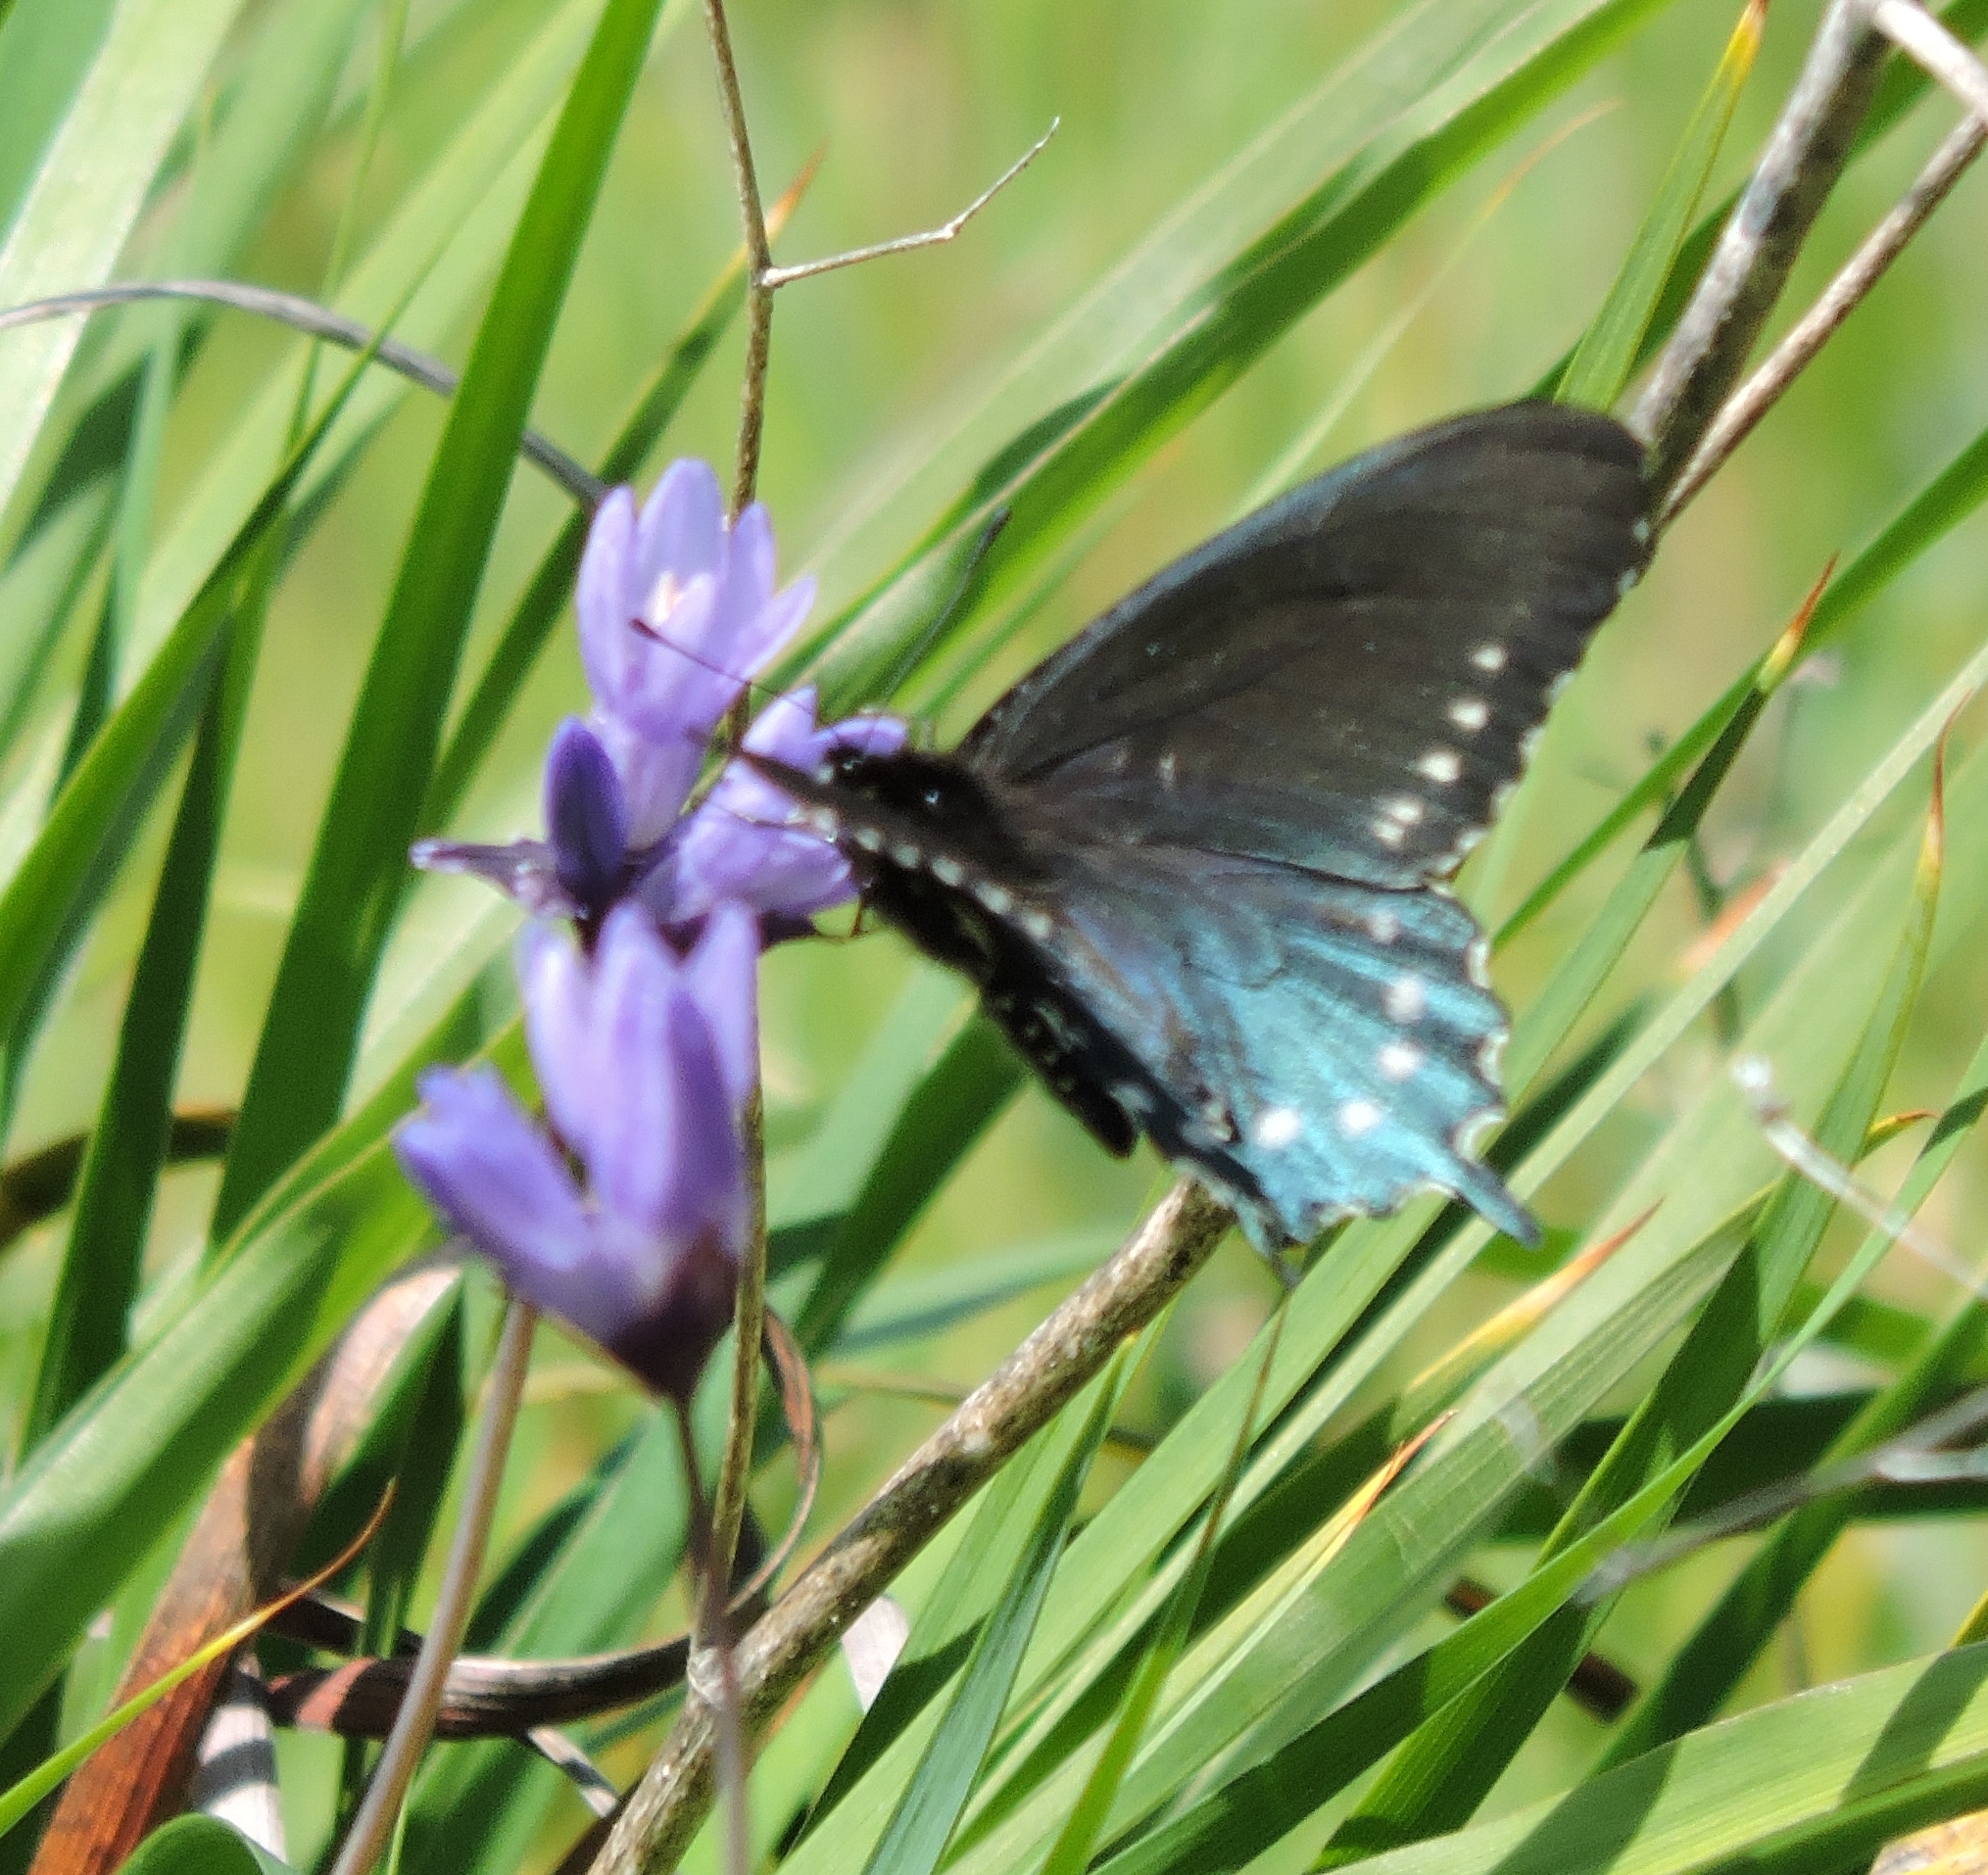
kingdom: Animalia
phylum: Arthropoda
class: Insecta
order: Lepidoptera
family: Papilionidae
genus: Battus
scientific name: Battus philenor
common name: Pipevine swallowtail
